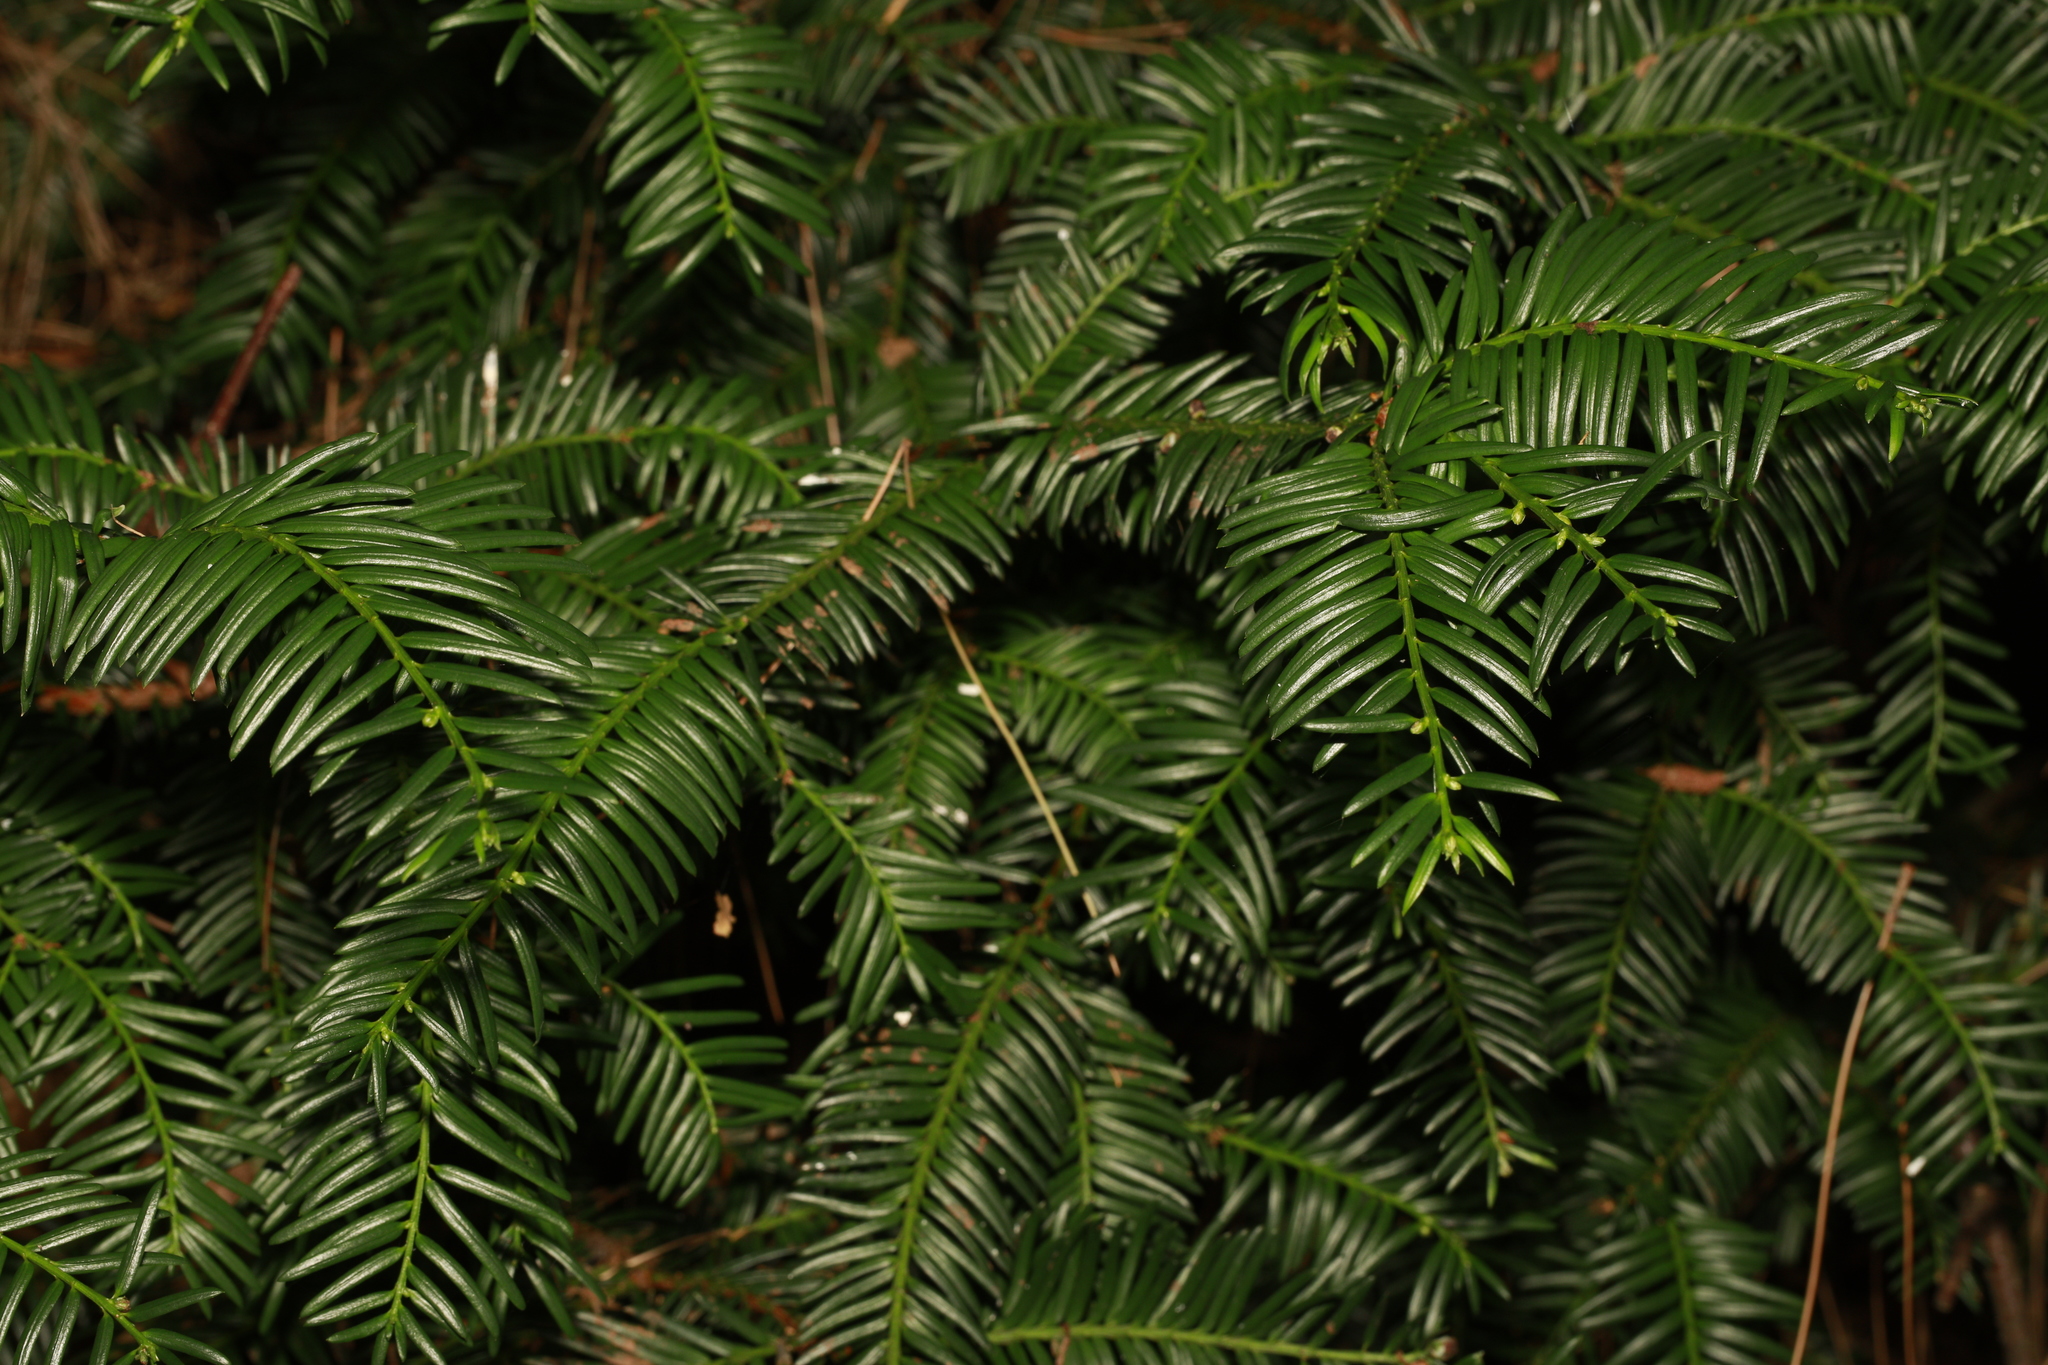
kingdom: Plantae
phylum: Tracheophyta
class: Pinopsida
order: Pinales
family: Taxaceae
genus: Taxus
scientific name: Taxus baccata
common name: Yew
